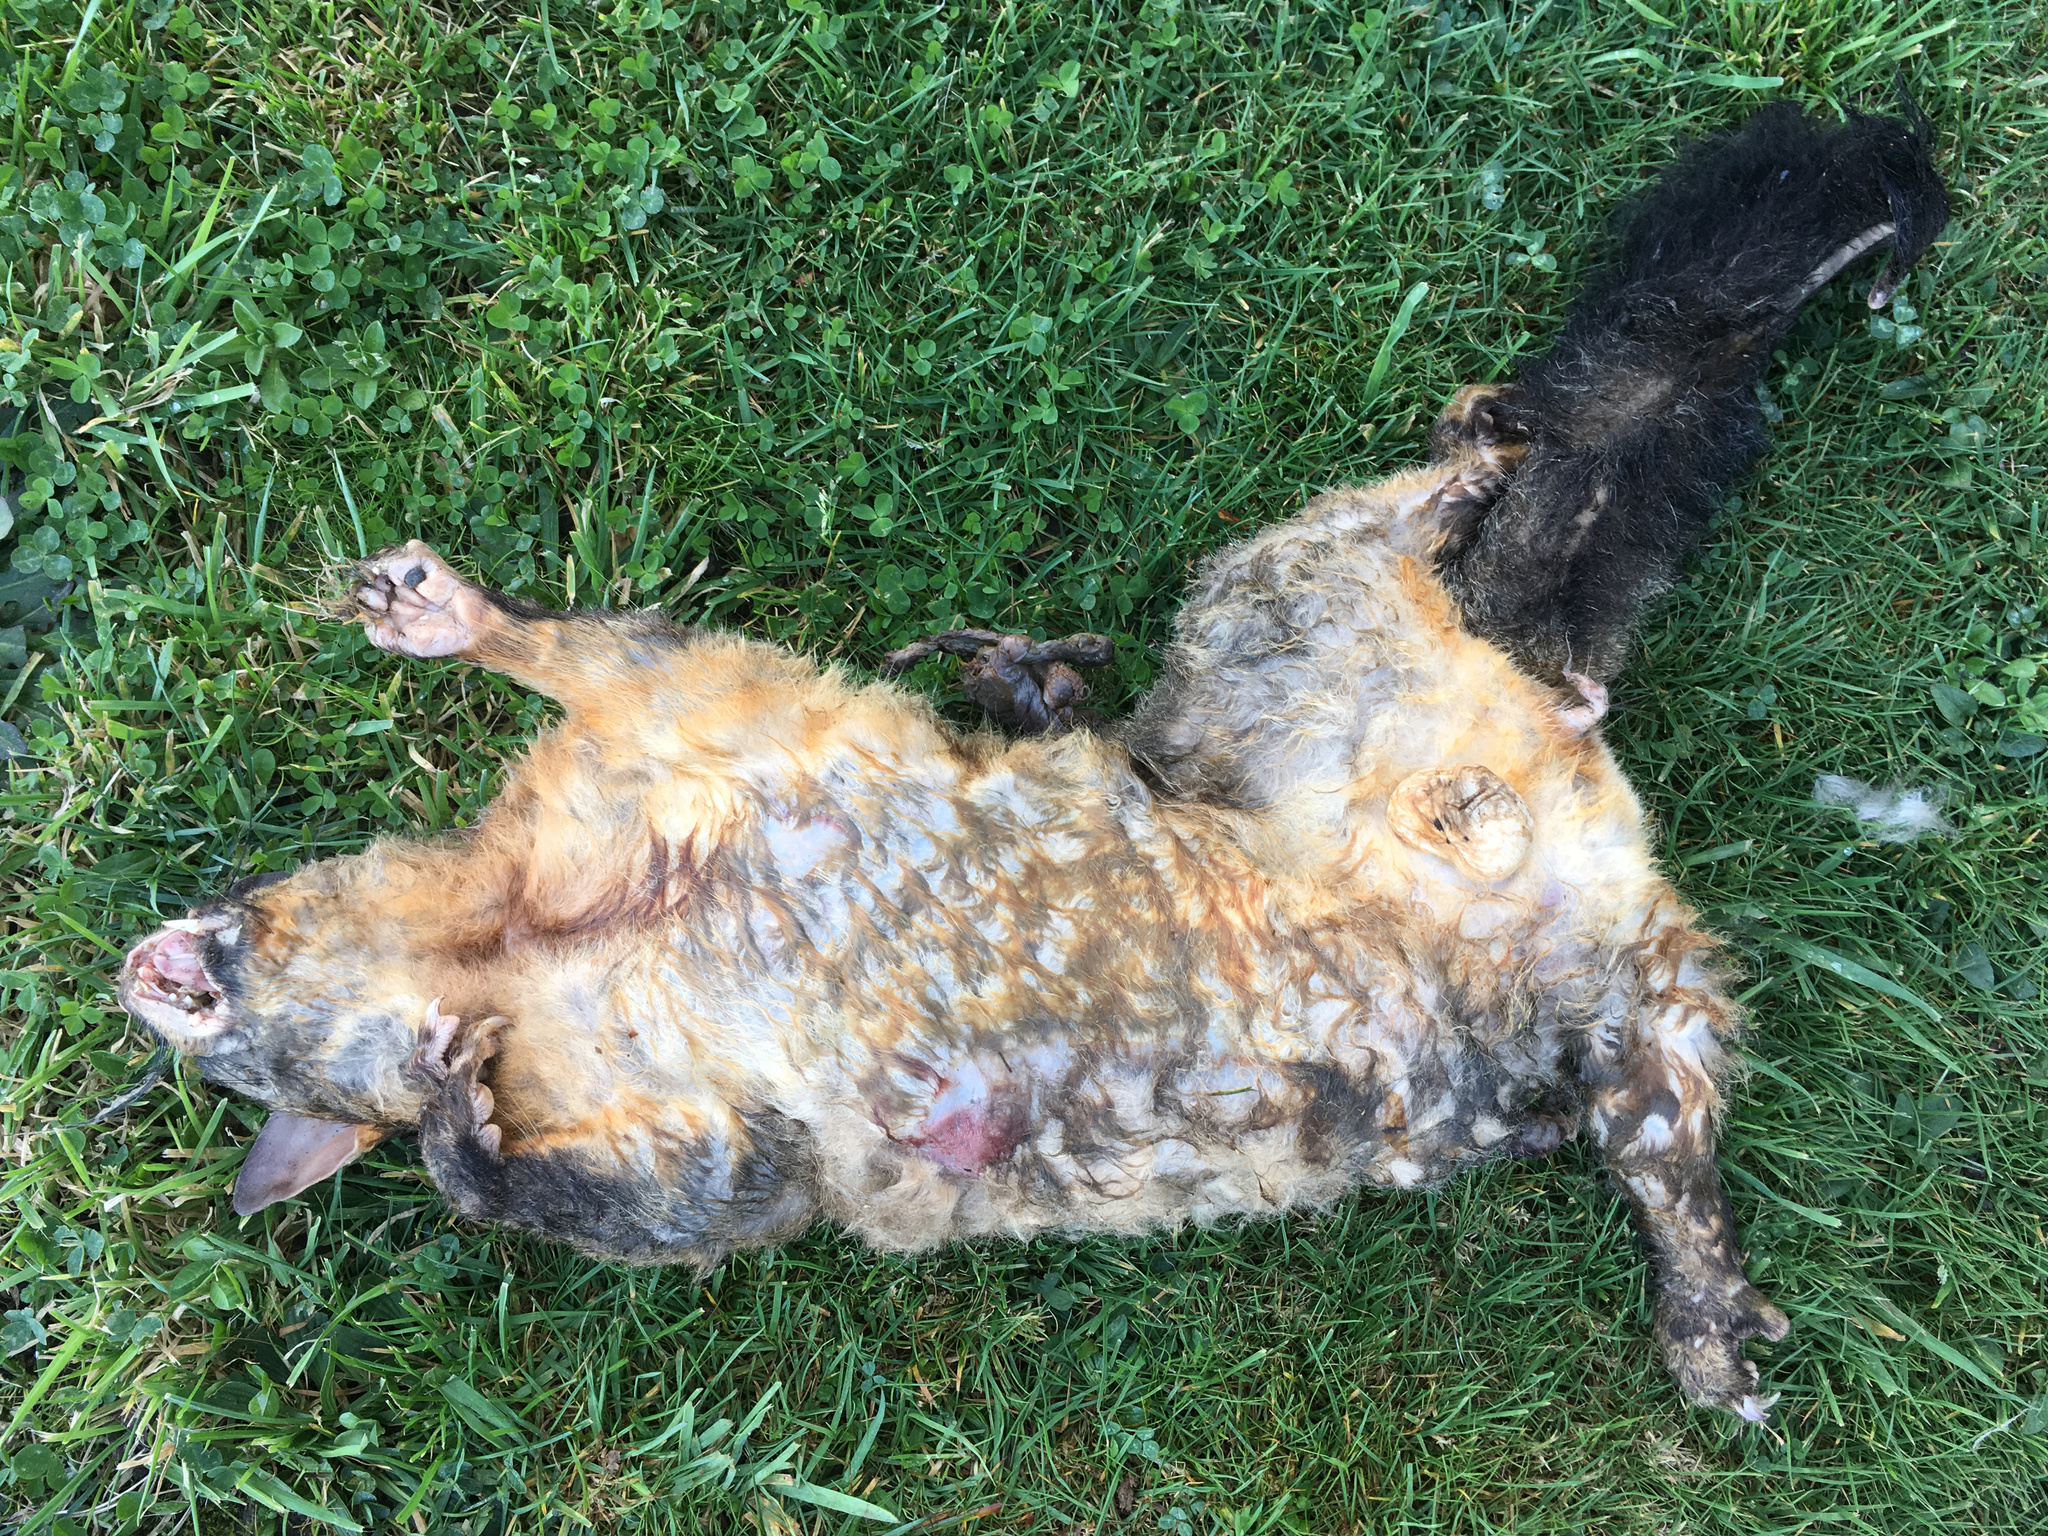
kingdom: Animalia
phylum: Chordata
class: Mammalia
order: Diprotodontia
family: Phalangeridae
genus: Trichosurus
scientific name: Trichosurus vulpecula
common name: Common brushtail
